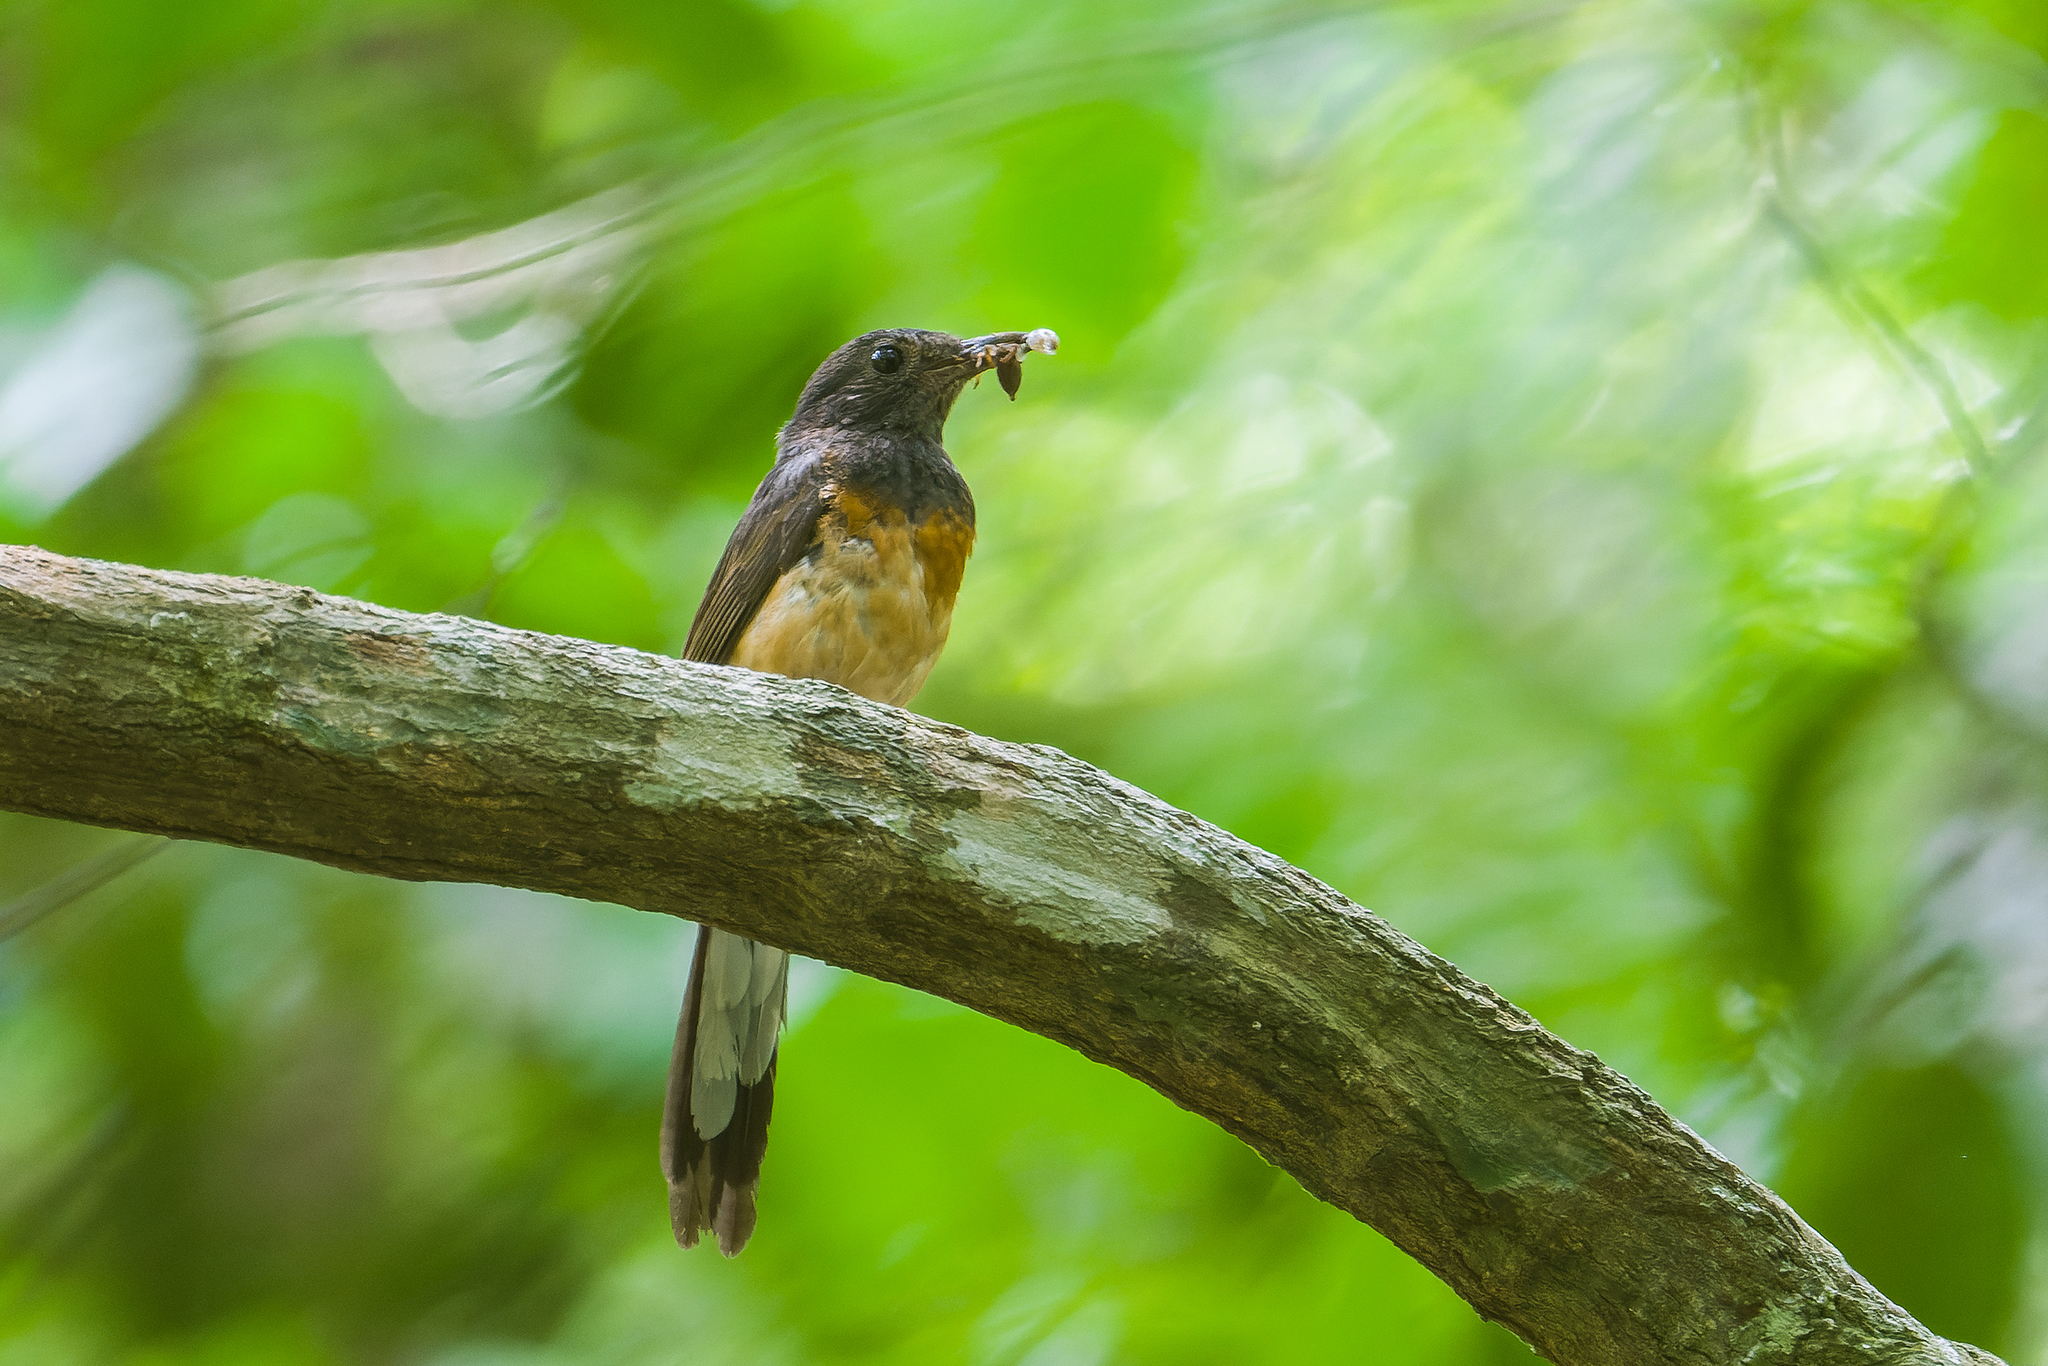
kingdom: Animalia
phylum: Chordata
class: Aves
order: Passeriformes
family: Muscicapidae
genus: Copsychus
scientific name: Copsychus malabaricus
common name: White-rumped shama
